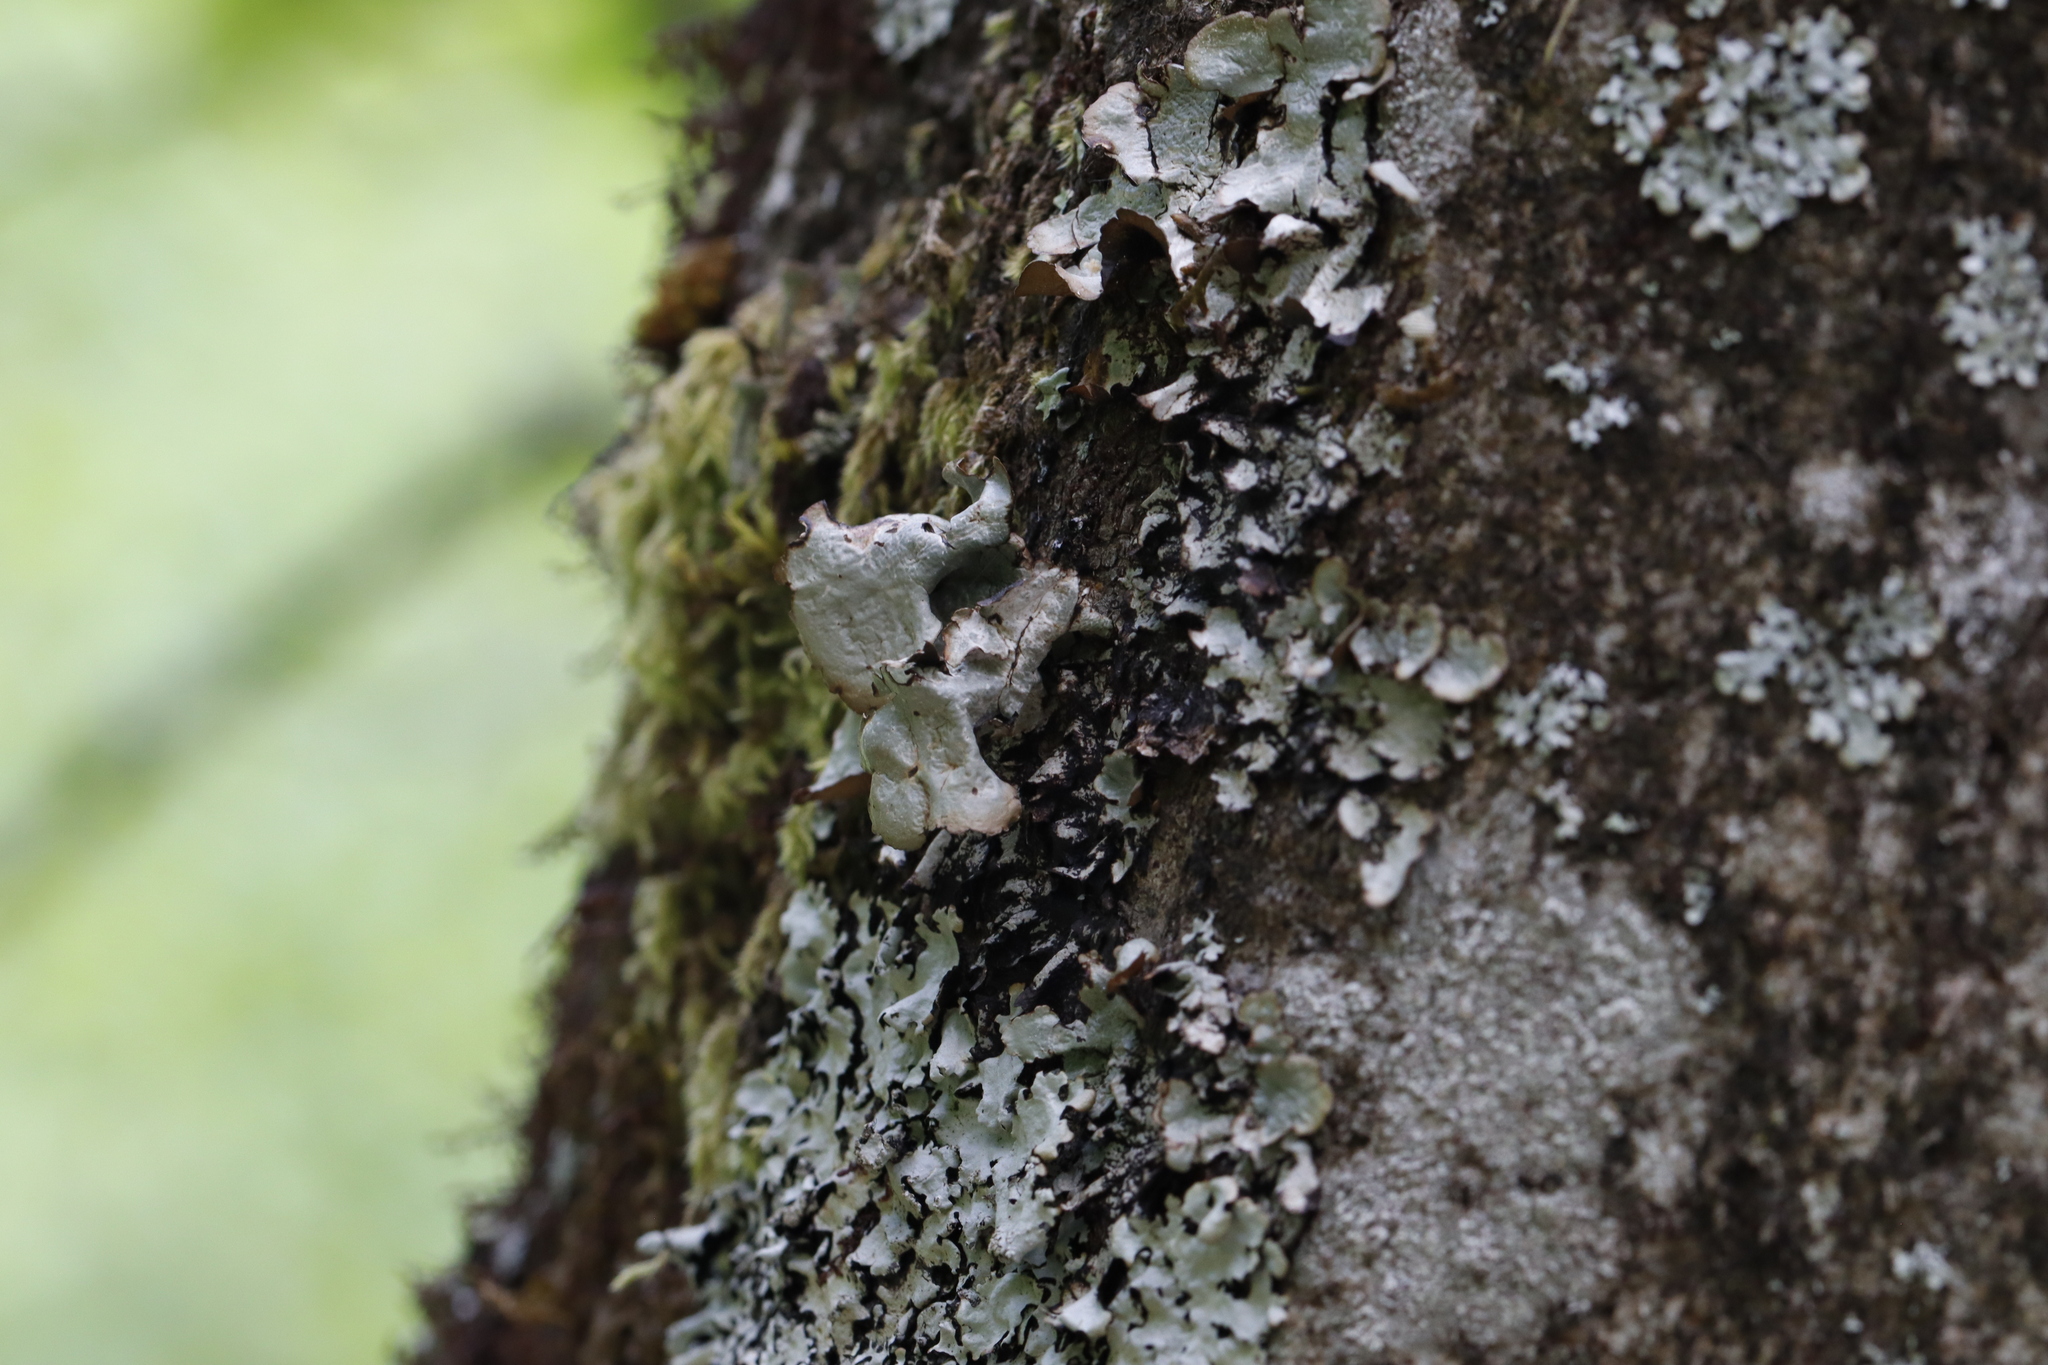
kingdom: Fungi
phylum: Ascomycota
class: Lecanoromycetes
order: Lecanorales
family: Parmeliaceae
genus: Cetrelia
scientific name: Cetrelia cetrarioides
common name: Speckled iceland lichen
